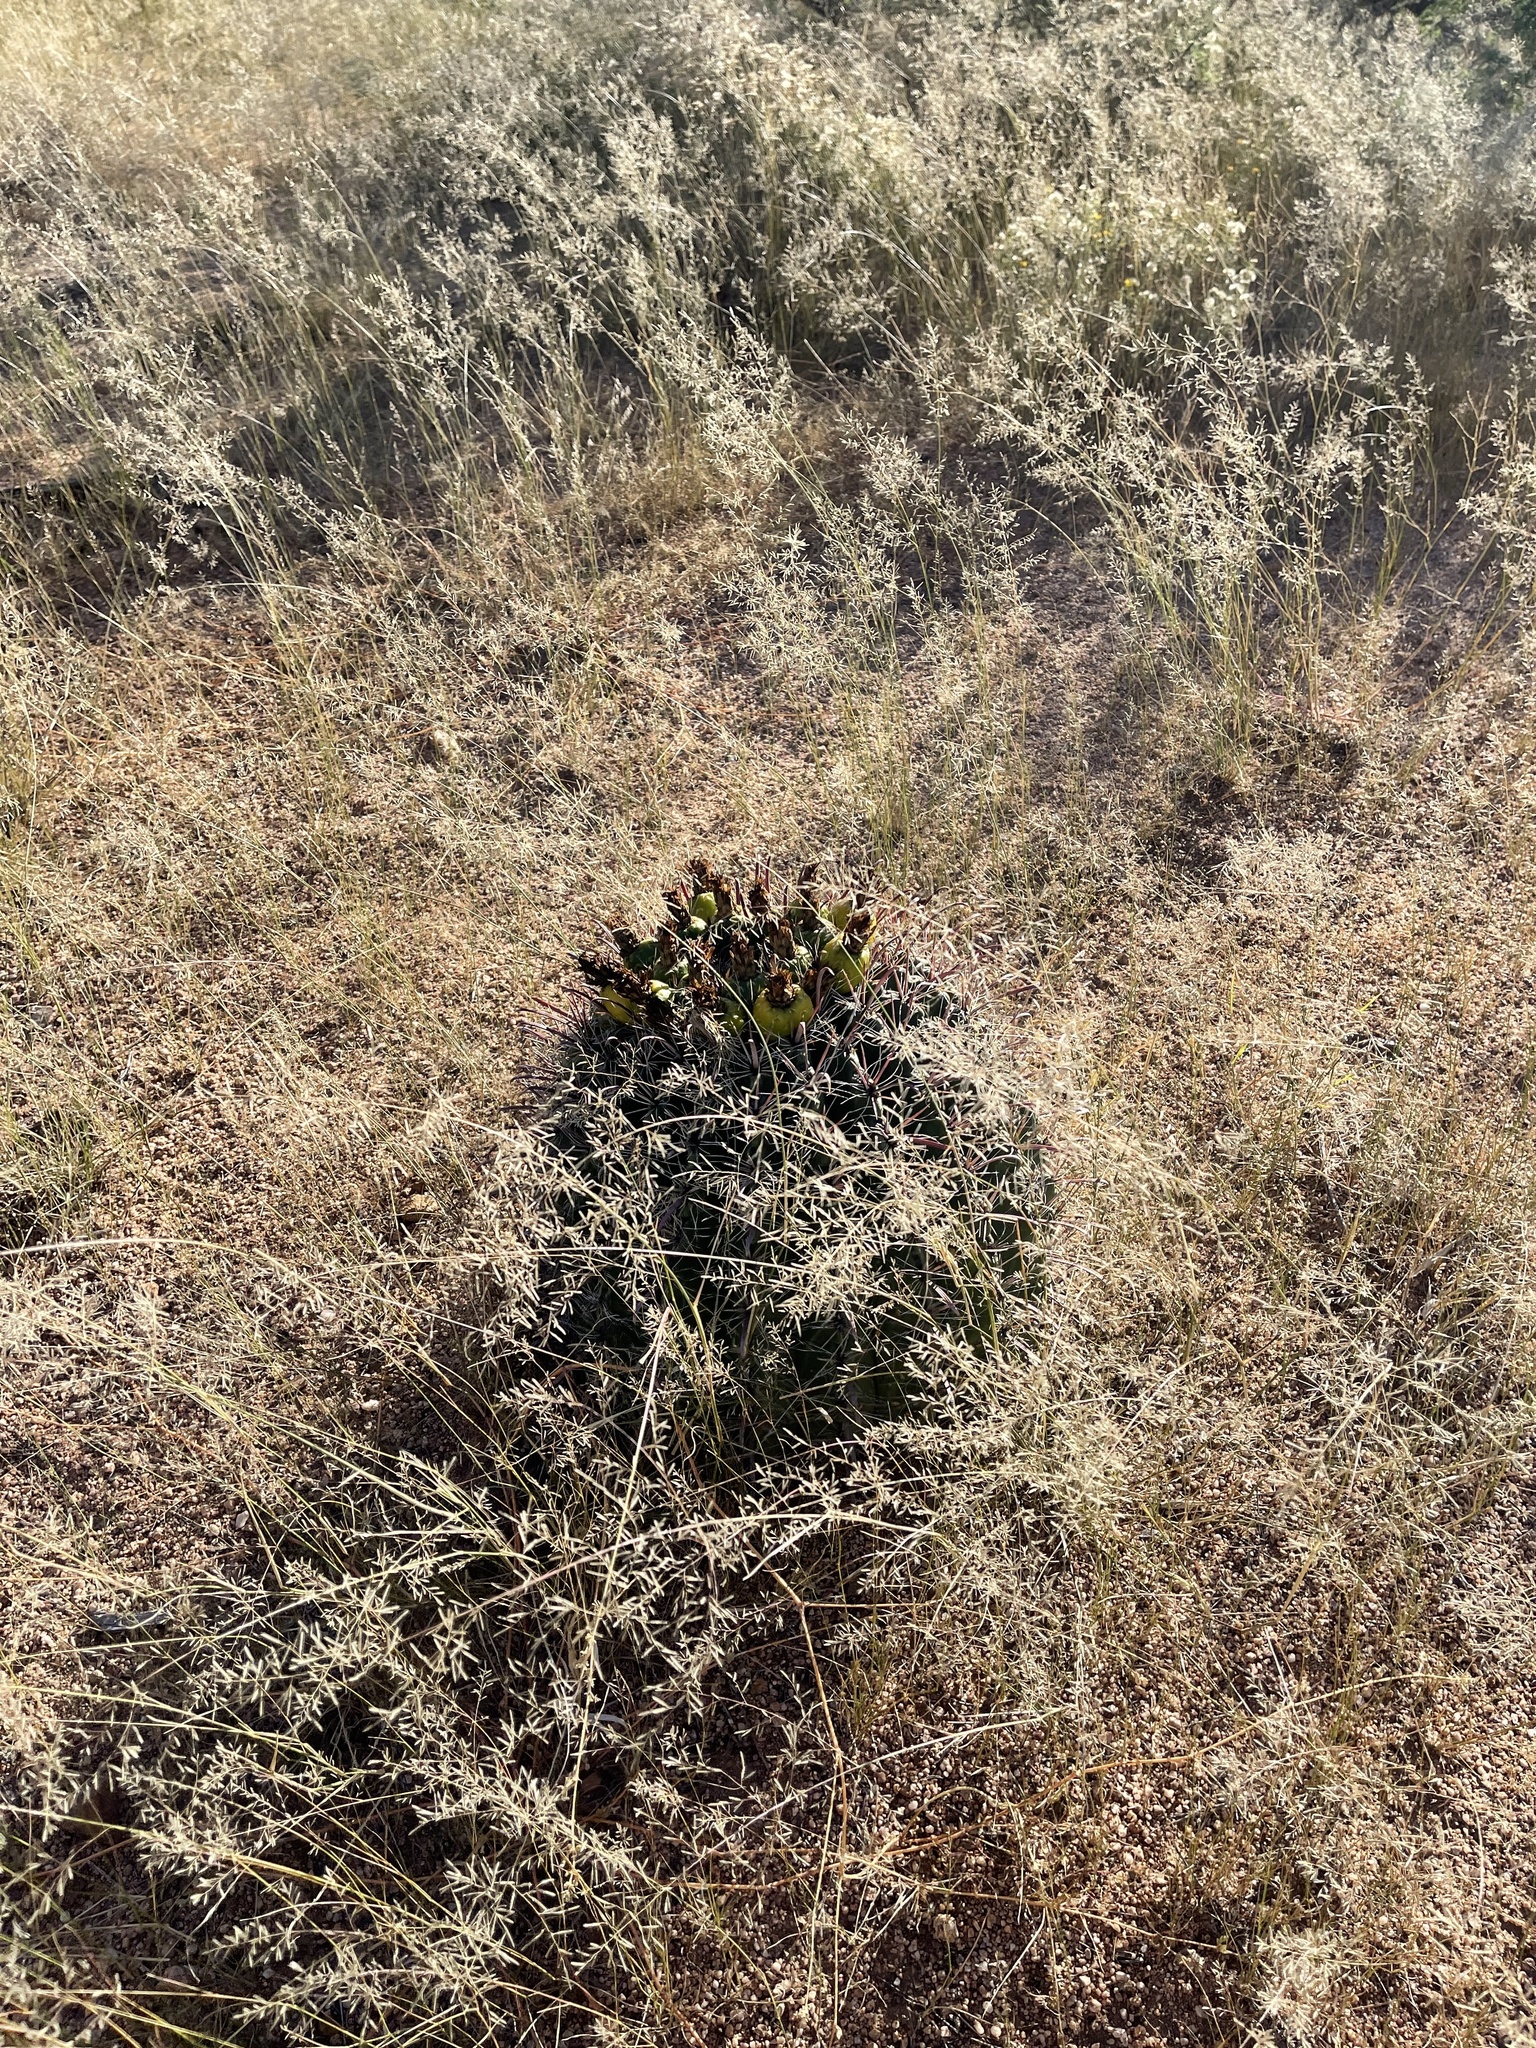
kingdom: Plantae
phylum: Tracheophyta
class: Magnoliopsida
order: Caryophyllales
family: Cactaceae
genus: Ferocactus
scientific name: Ferocactus wislizeni
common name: Candy barrel cactus
